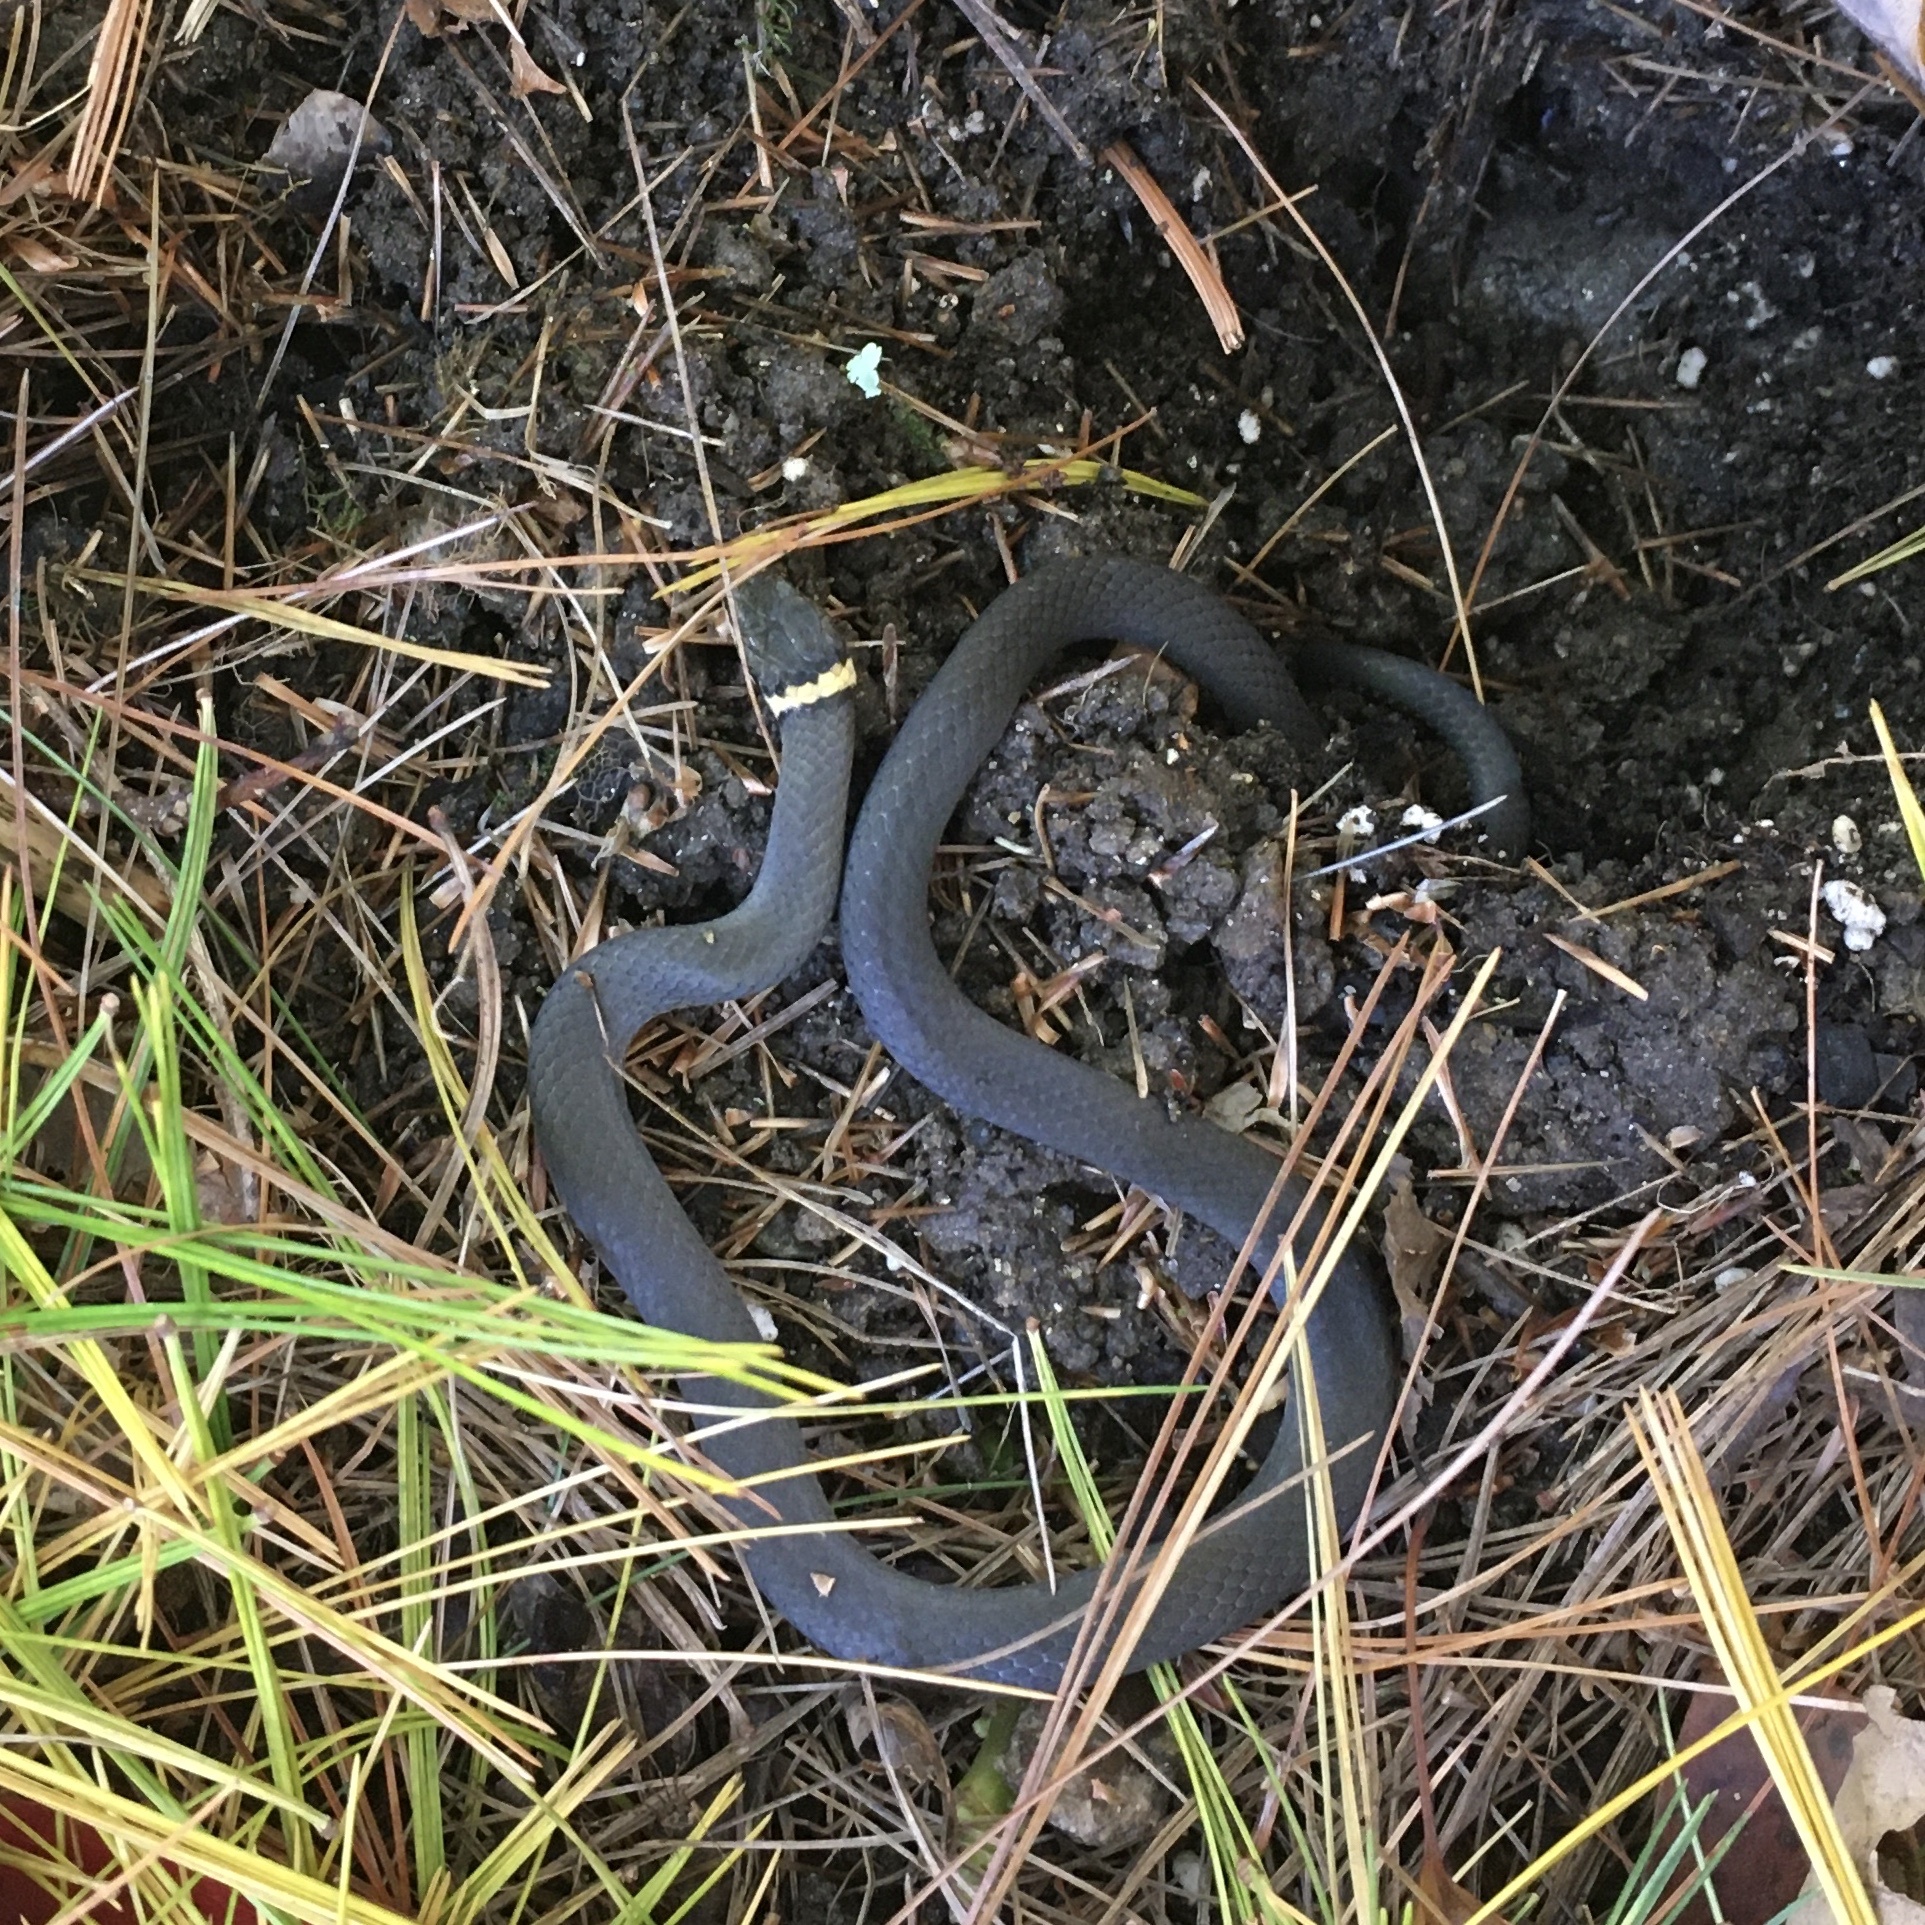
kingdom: Animalia
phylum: Chordata
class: Squamata
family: Colubridae
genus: Diadophis
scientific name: Diadophis punctatus
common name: Ringneck snake
